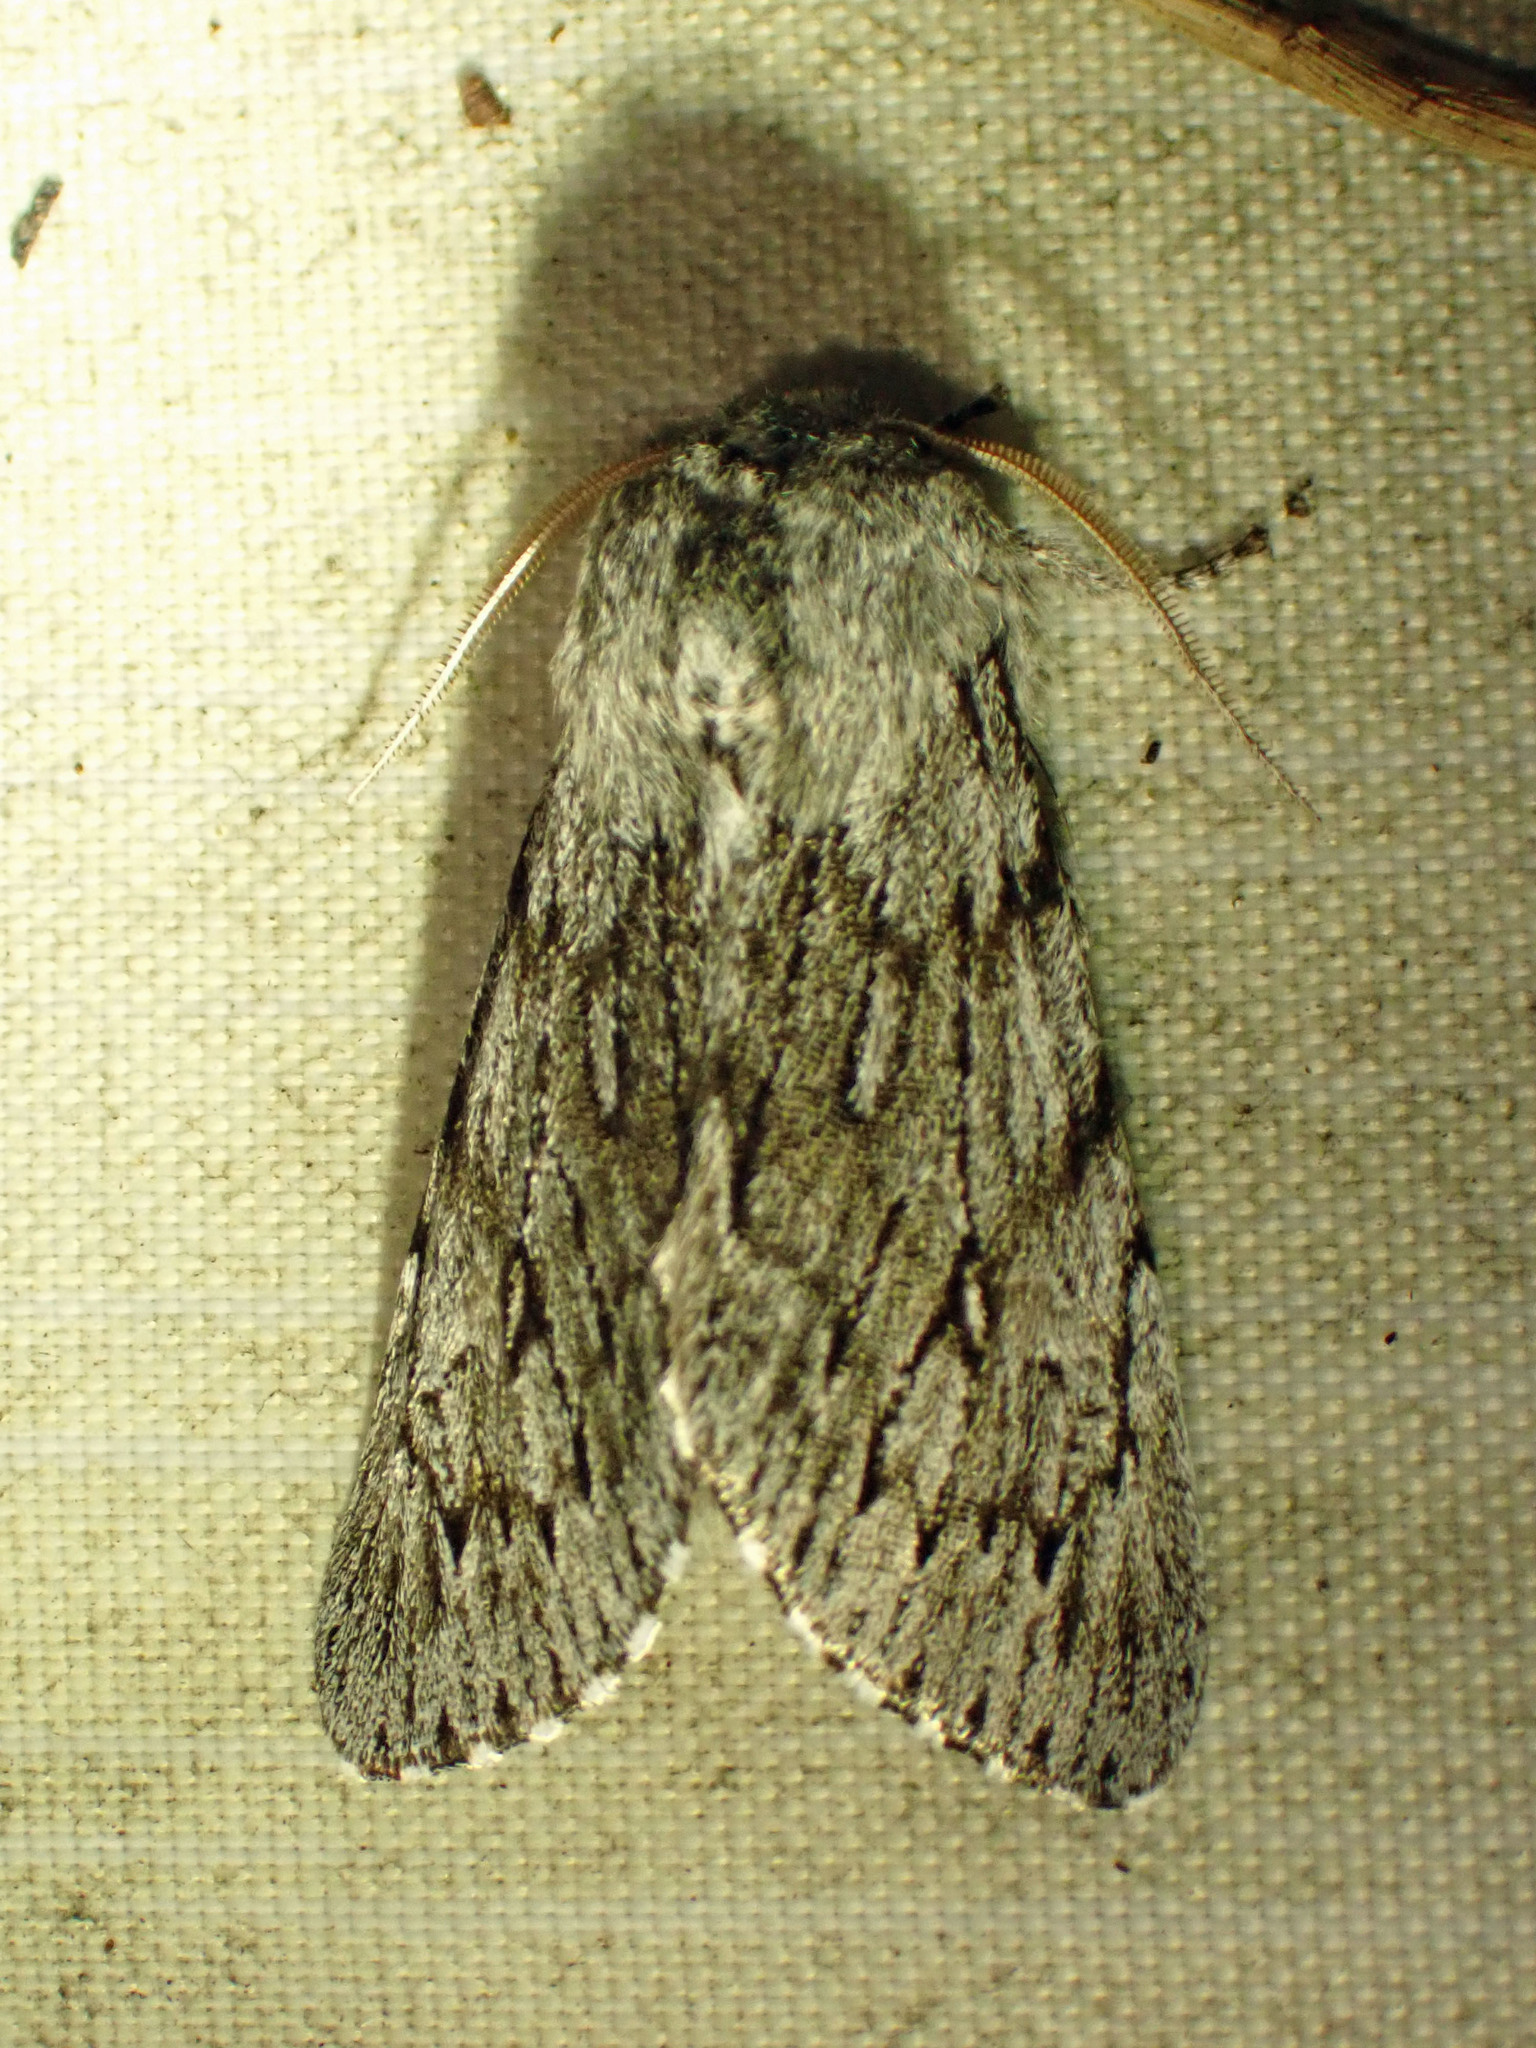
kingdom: Animalia
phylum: Arthropoda
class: Insecta
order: Lepidoptera
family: Noctuidae
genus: Brachionycha
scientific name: Brachionycha borealis
